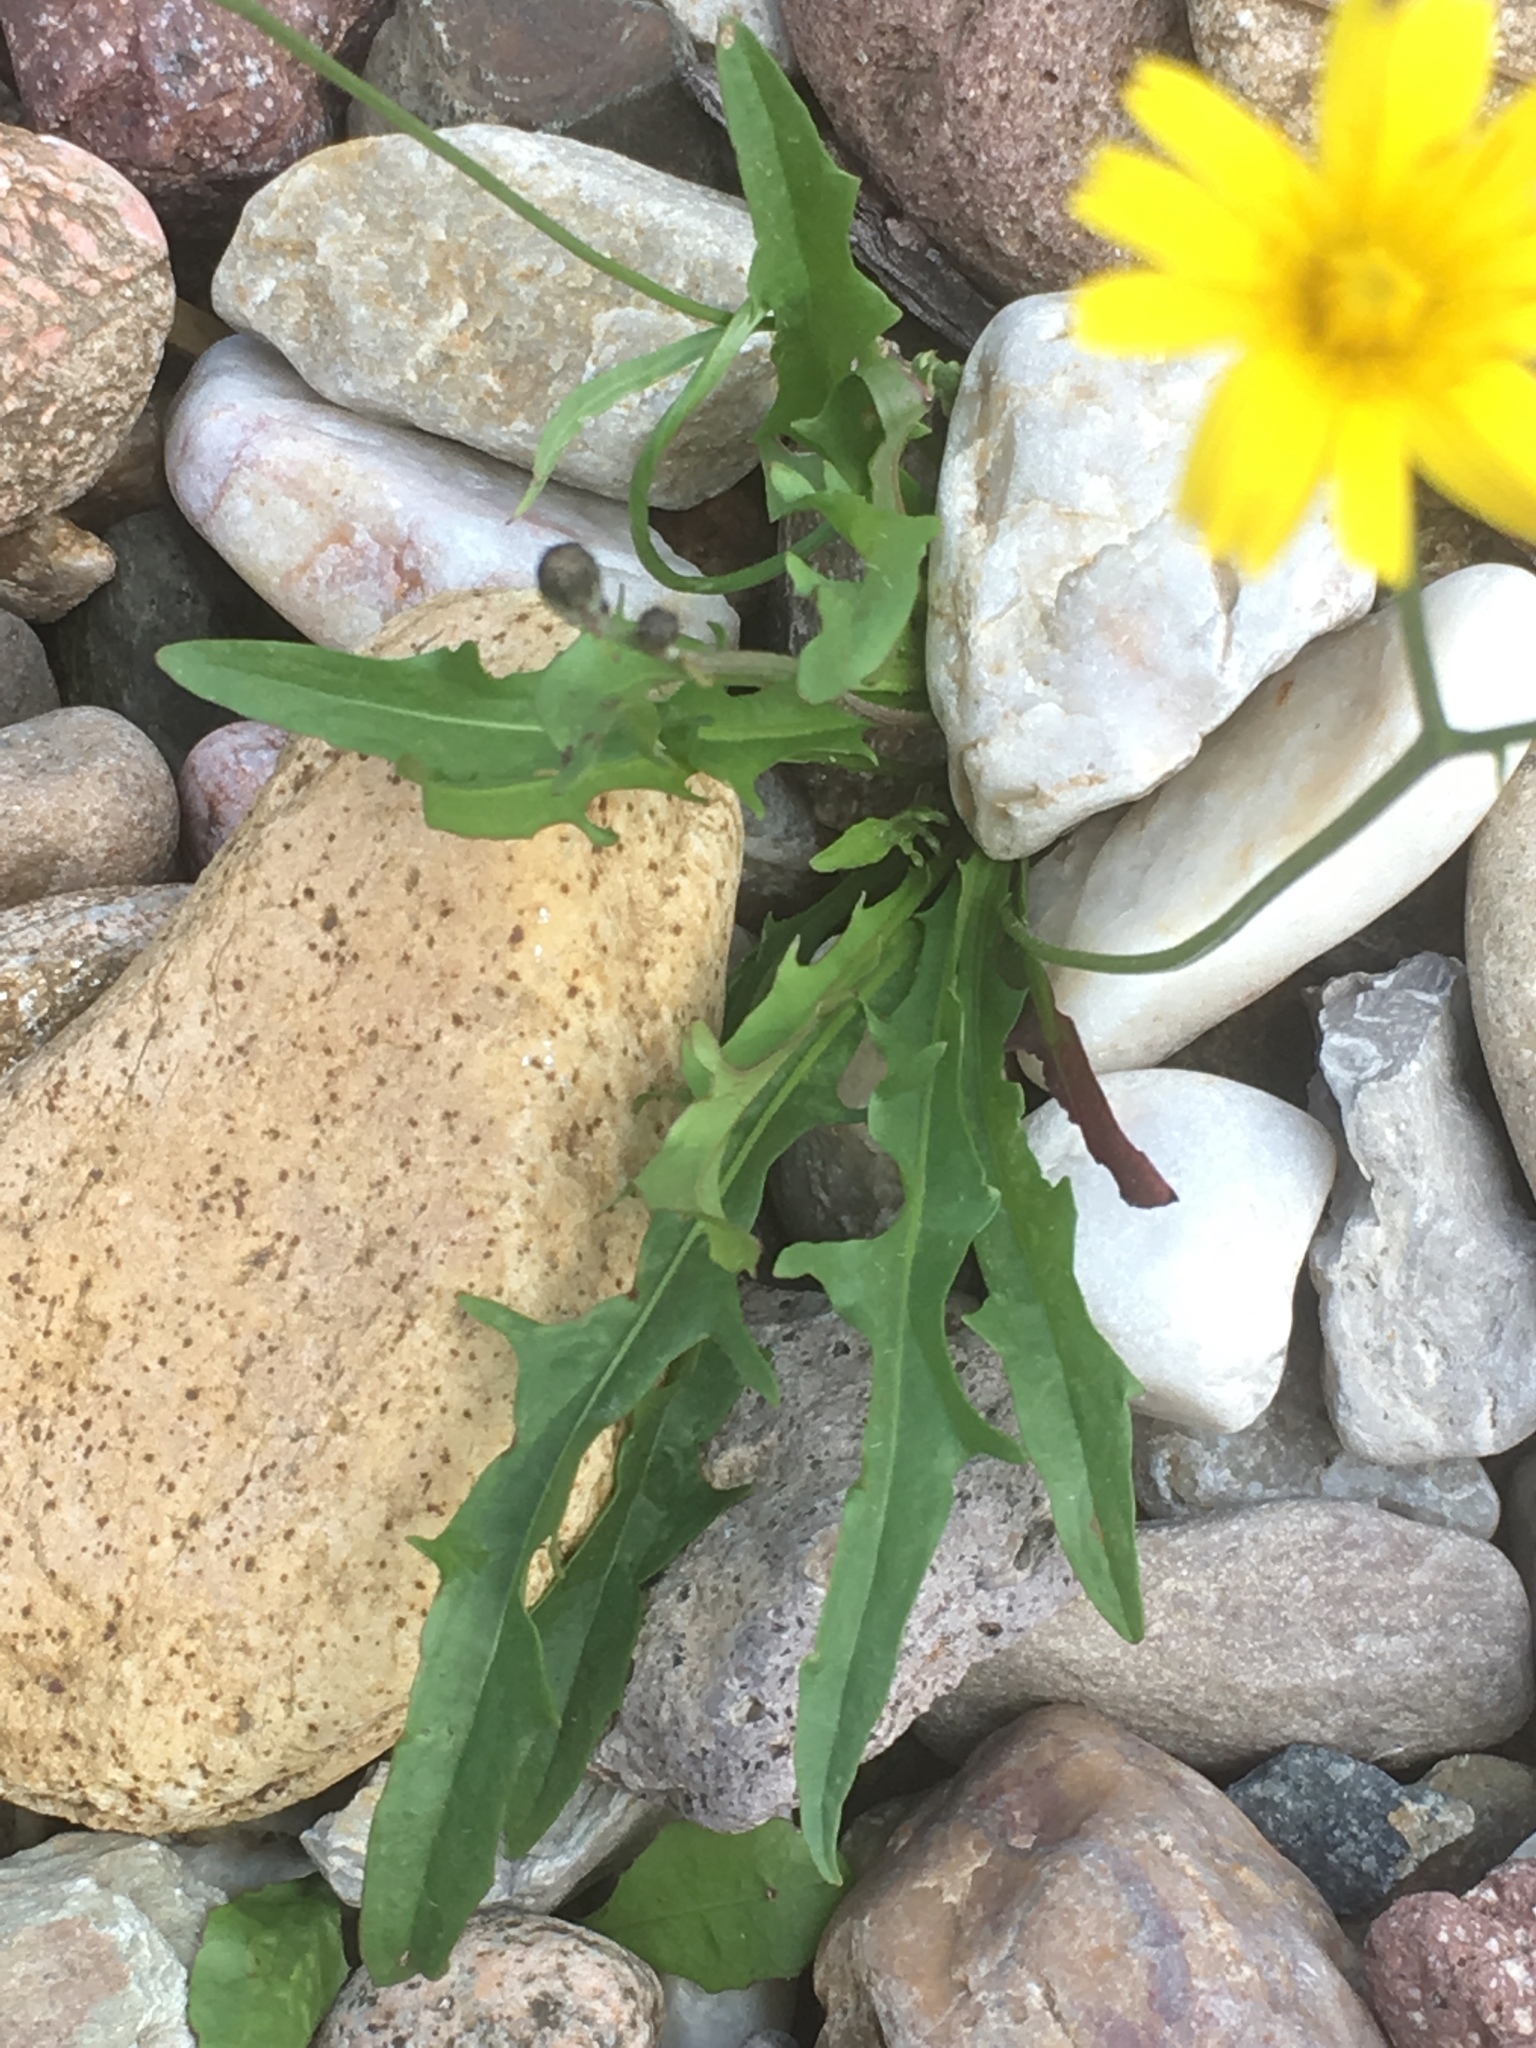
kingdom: Plantae
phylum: Tracheophyta
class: Magnoliopsida
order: Asterales
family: Asteraceae
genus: Scorzoneroides
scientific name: Scorzoneroides autumnalis
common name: Autumn hawkbit
